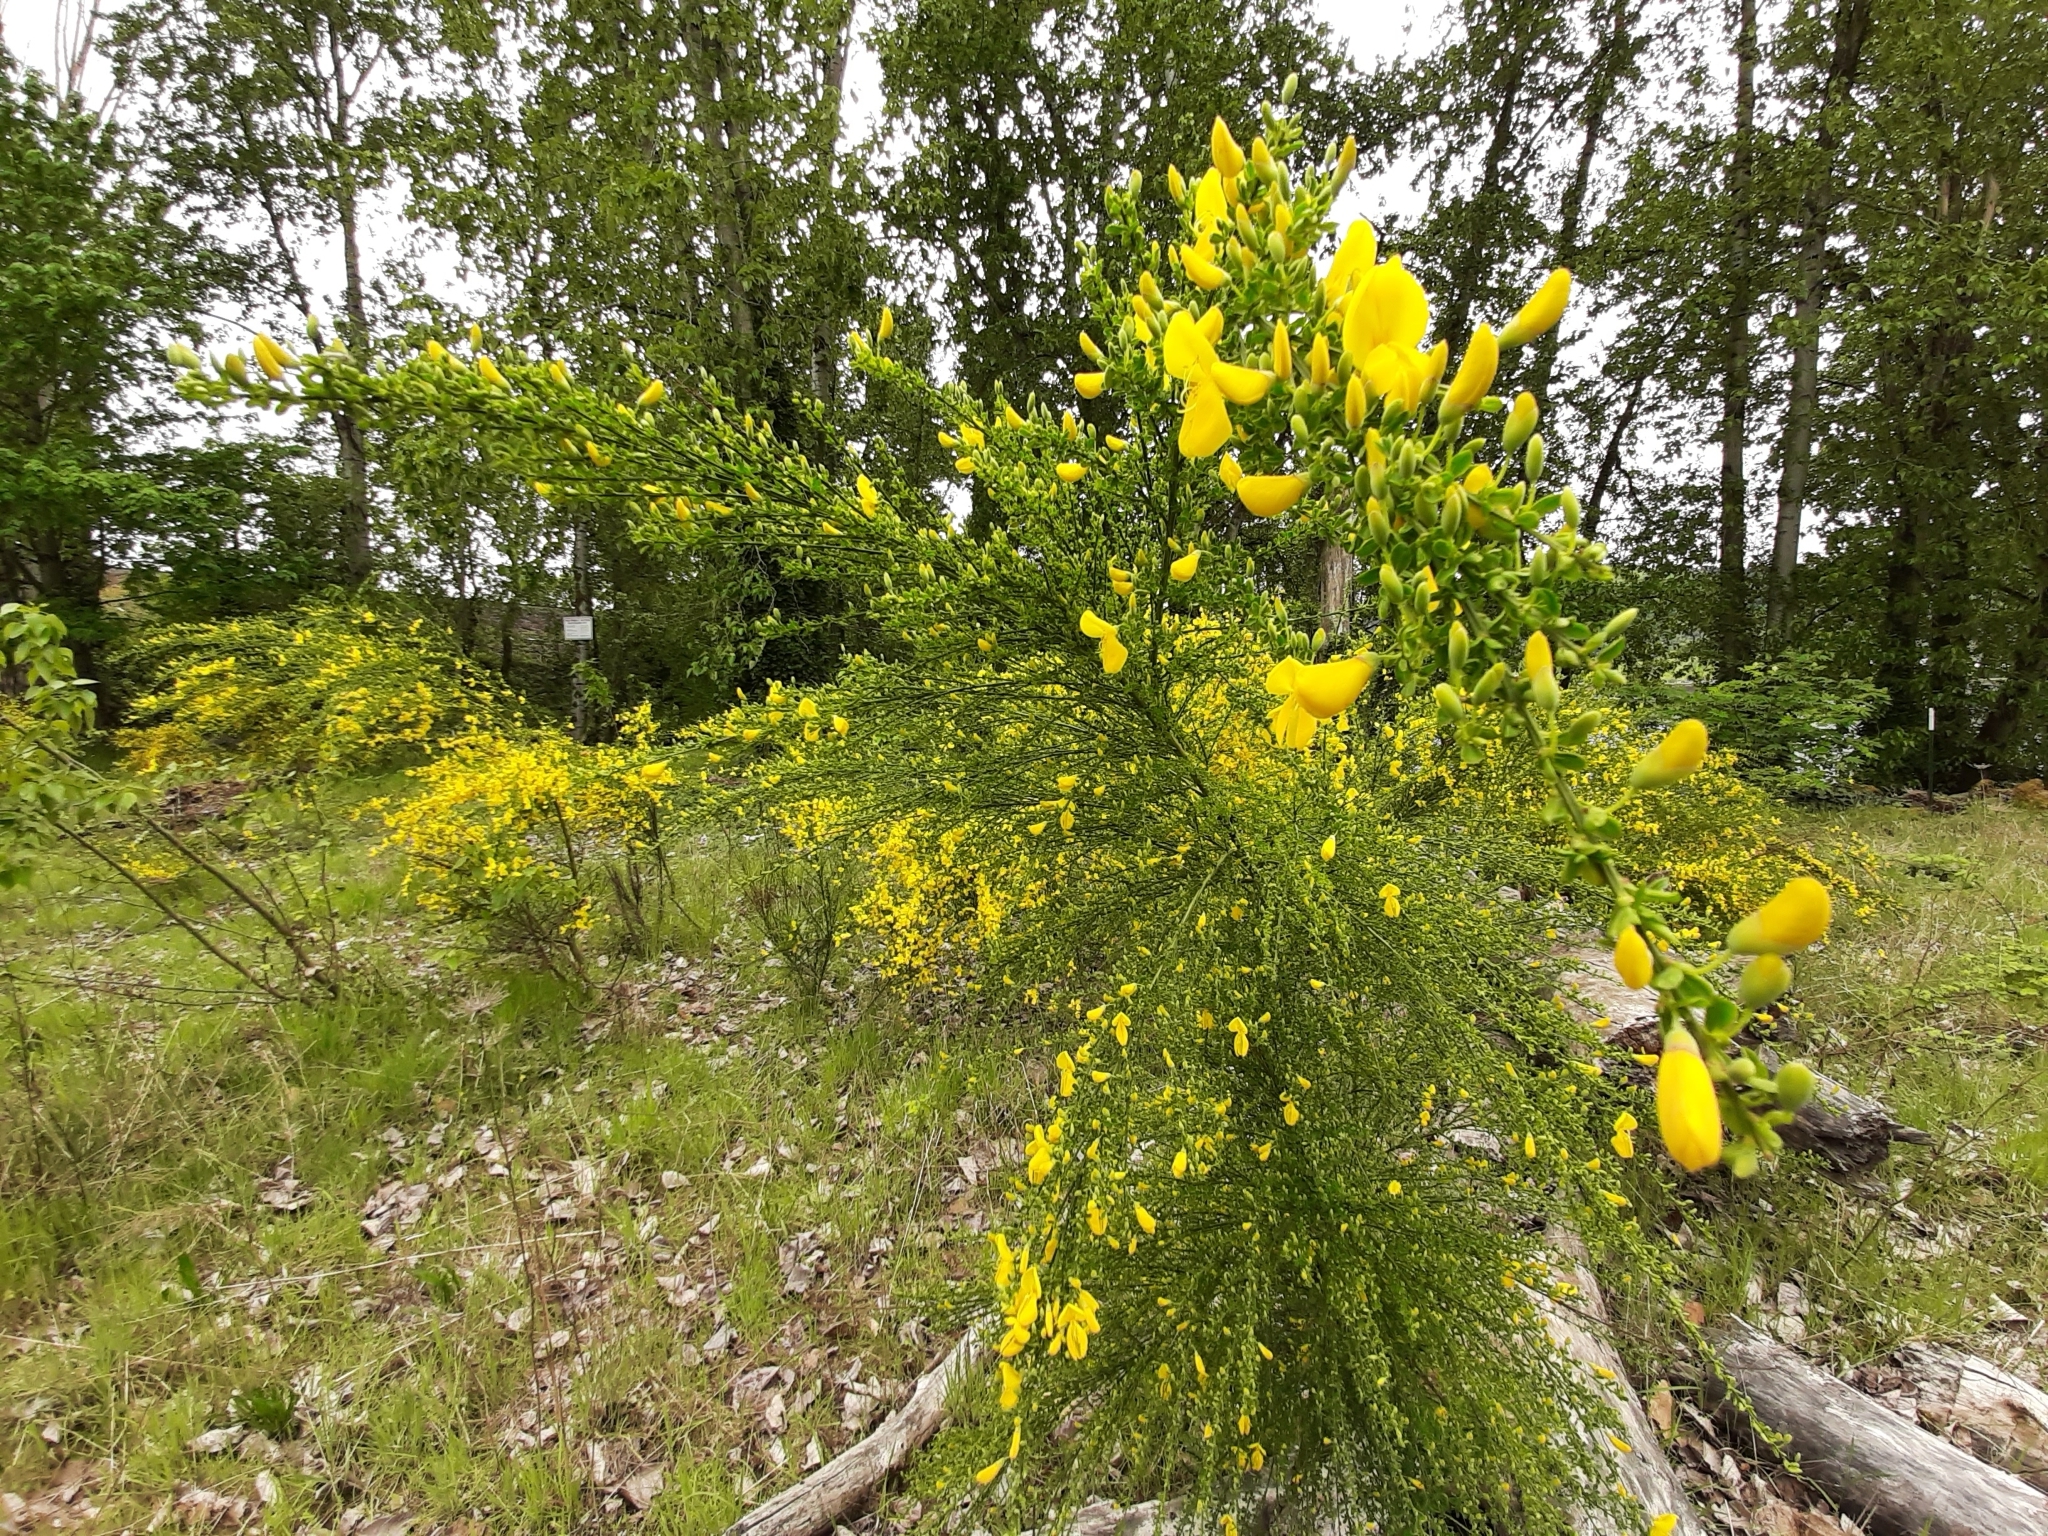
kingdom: Plantae
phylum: Tracheophyta
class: Magnoliopsida
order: Fabales
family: Fabaceae
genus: Cytisus
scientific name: Cytisus scoparius
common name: Scotch broom
